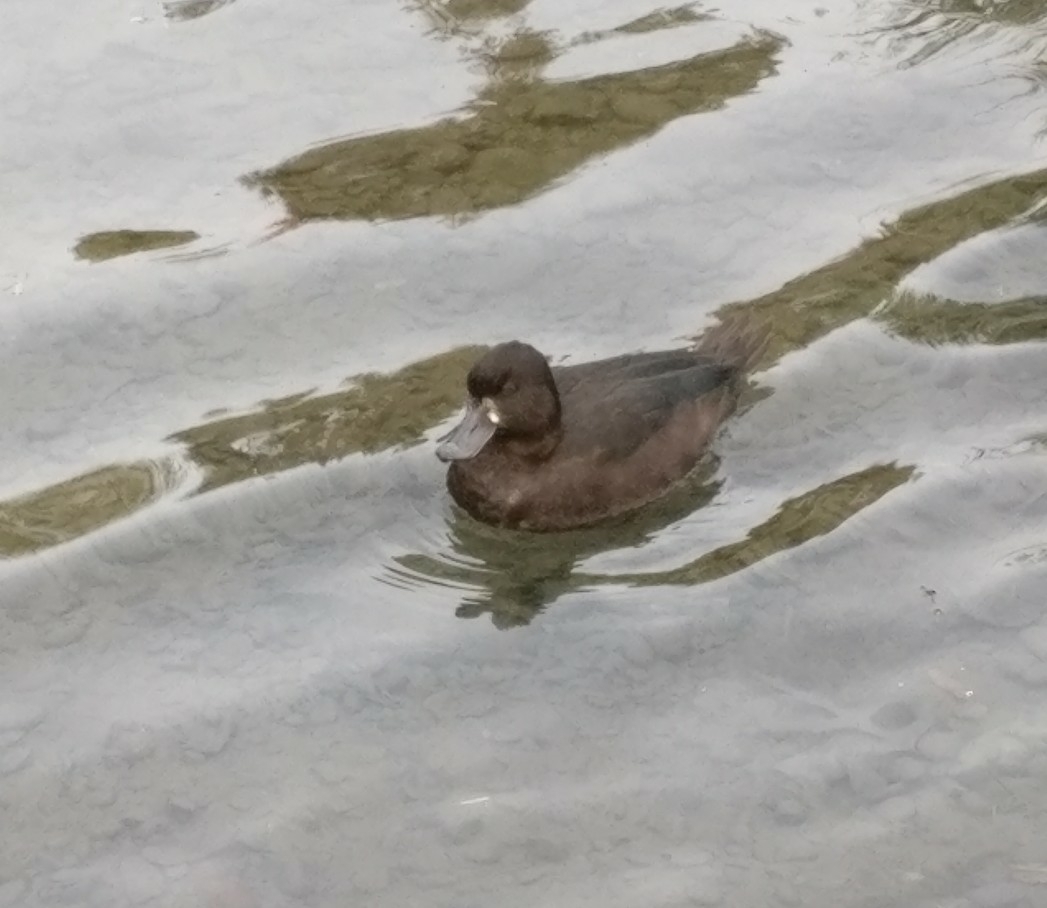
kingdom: Animalia
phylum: Chordata
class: Aves
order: Anseriformes
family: Anatidae
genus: Aythya
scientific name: Aythya novaeseelandiae
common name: New zealand scaup
